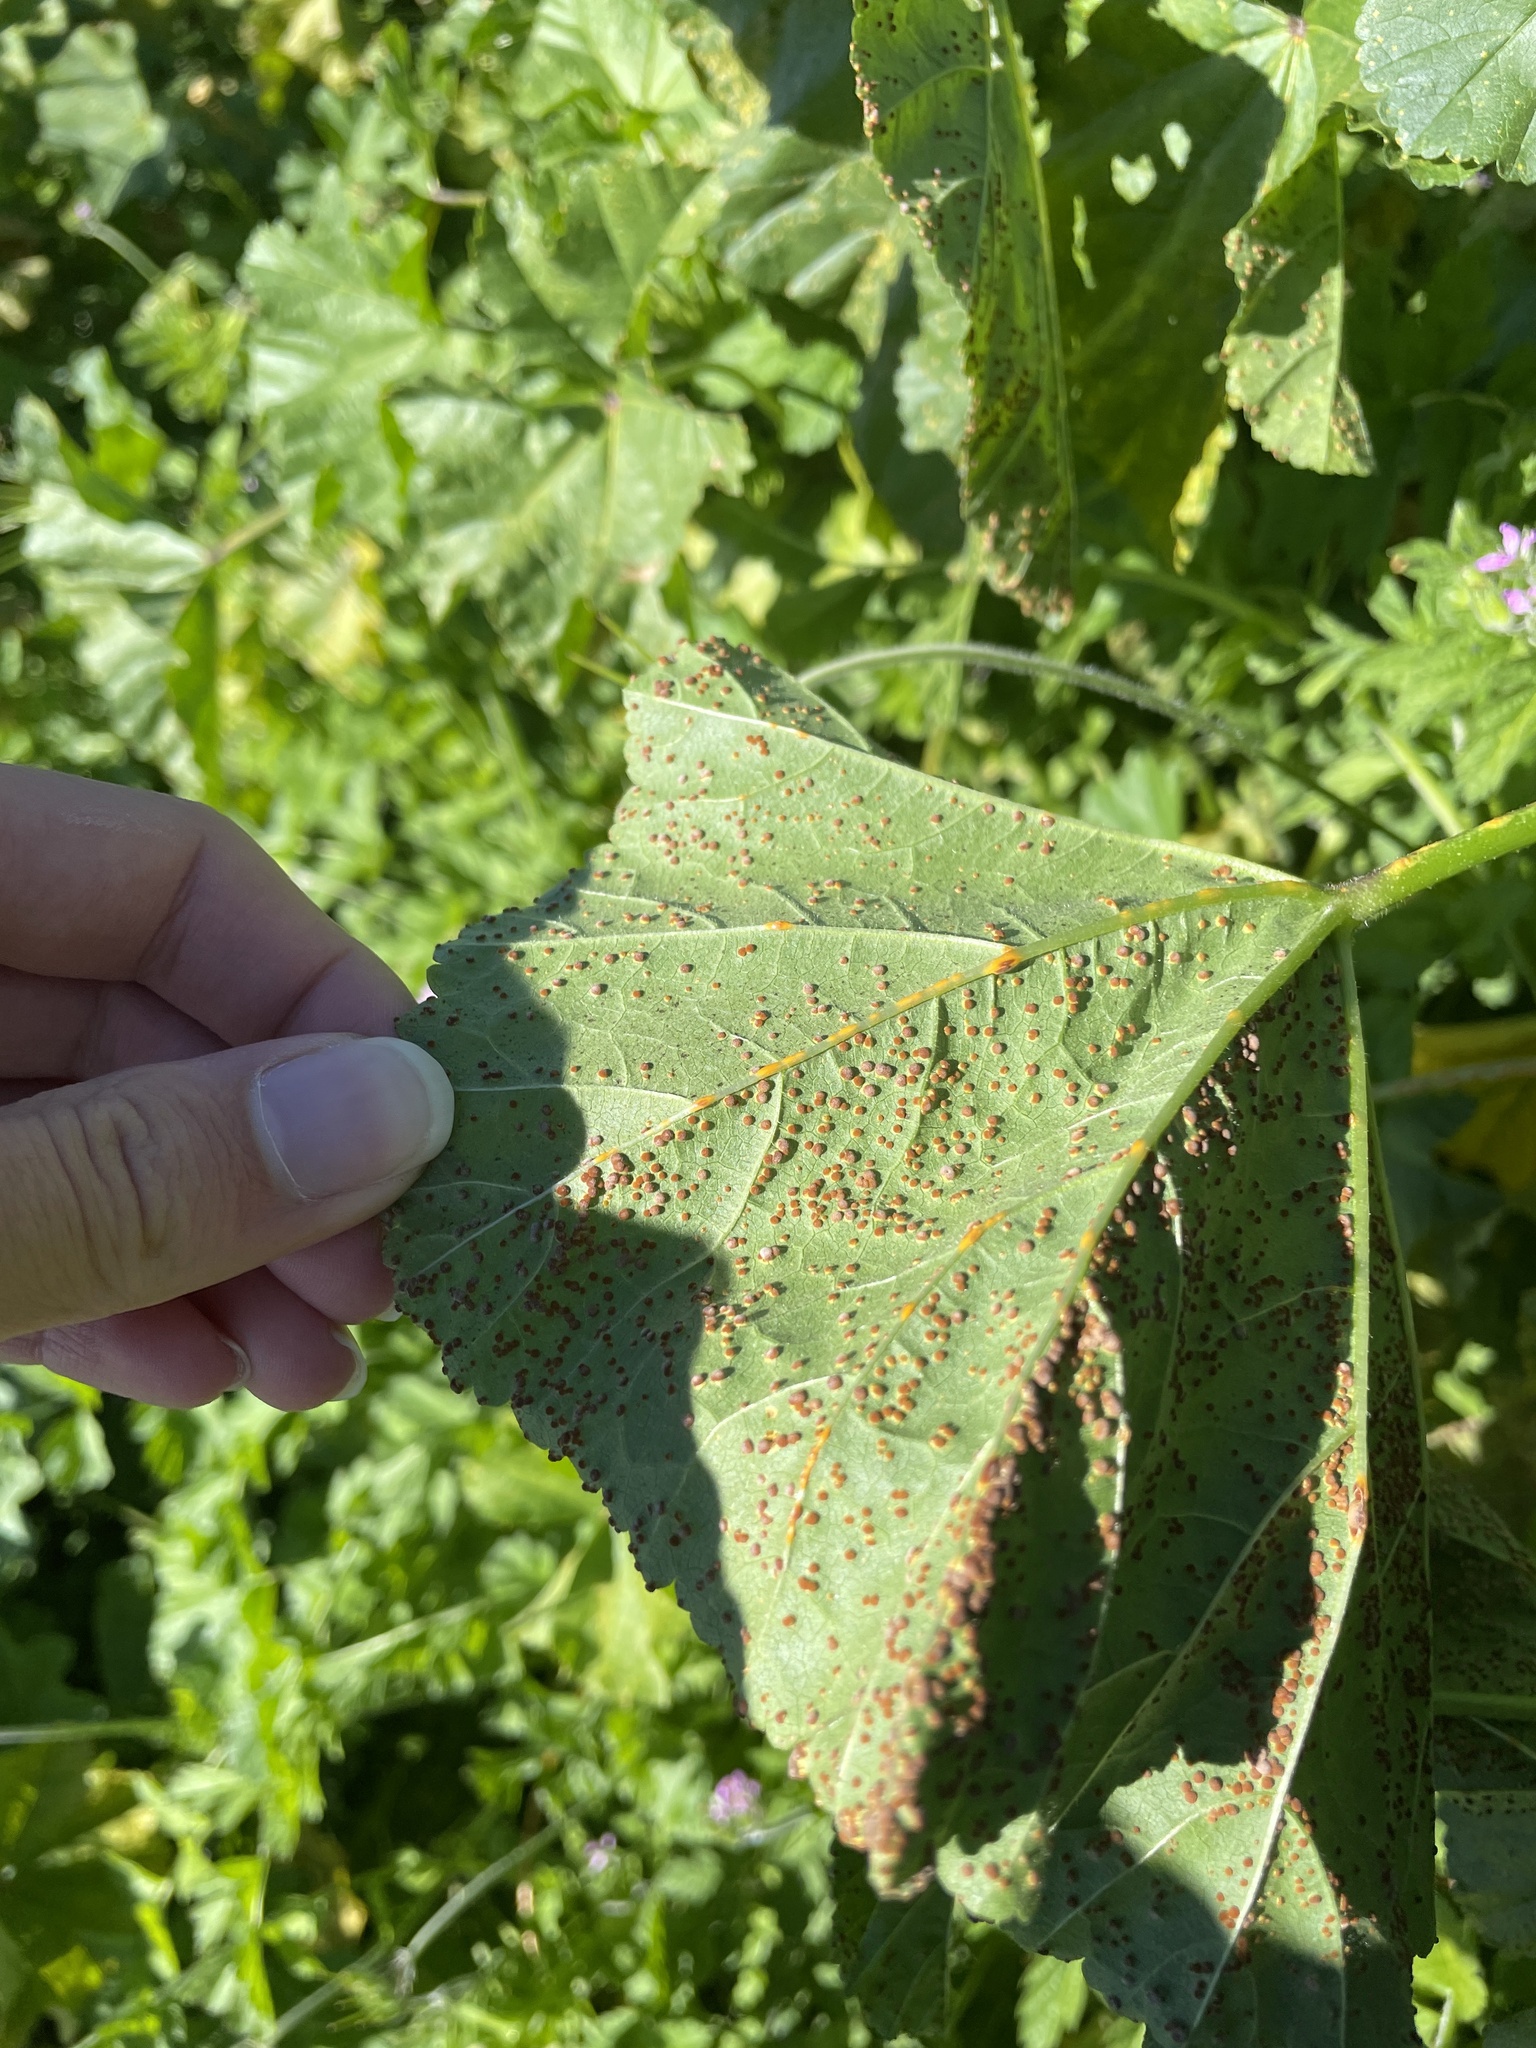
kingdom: Fungi
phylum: Basidiomycota
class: Pucciniomycetes
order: Pucciniales
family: Pucciniaceae
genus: Puccinia
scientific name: Puccinia malvacearum
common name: Hollyhock rust
